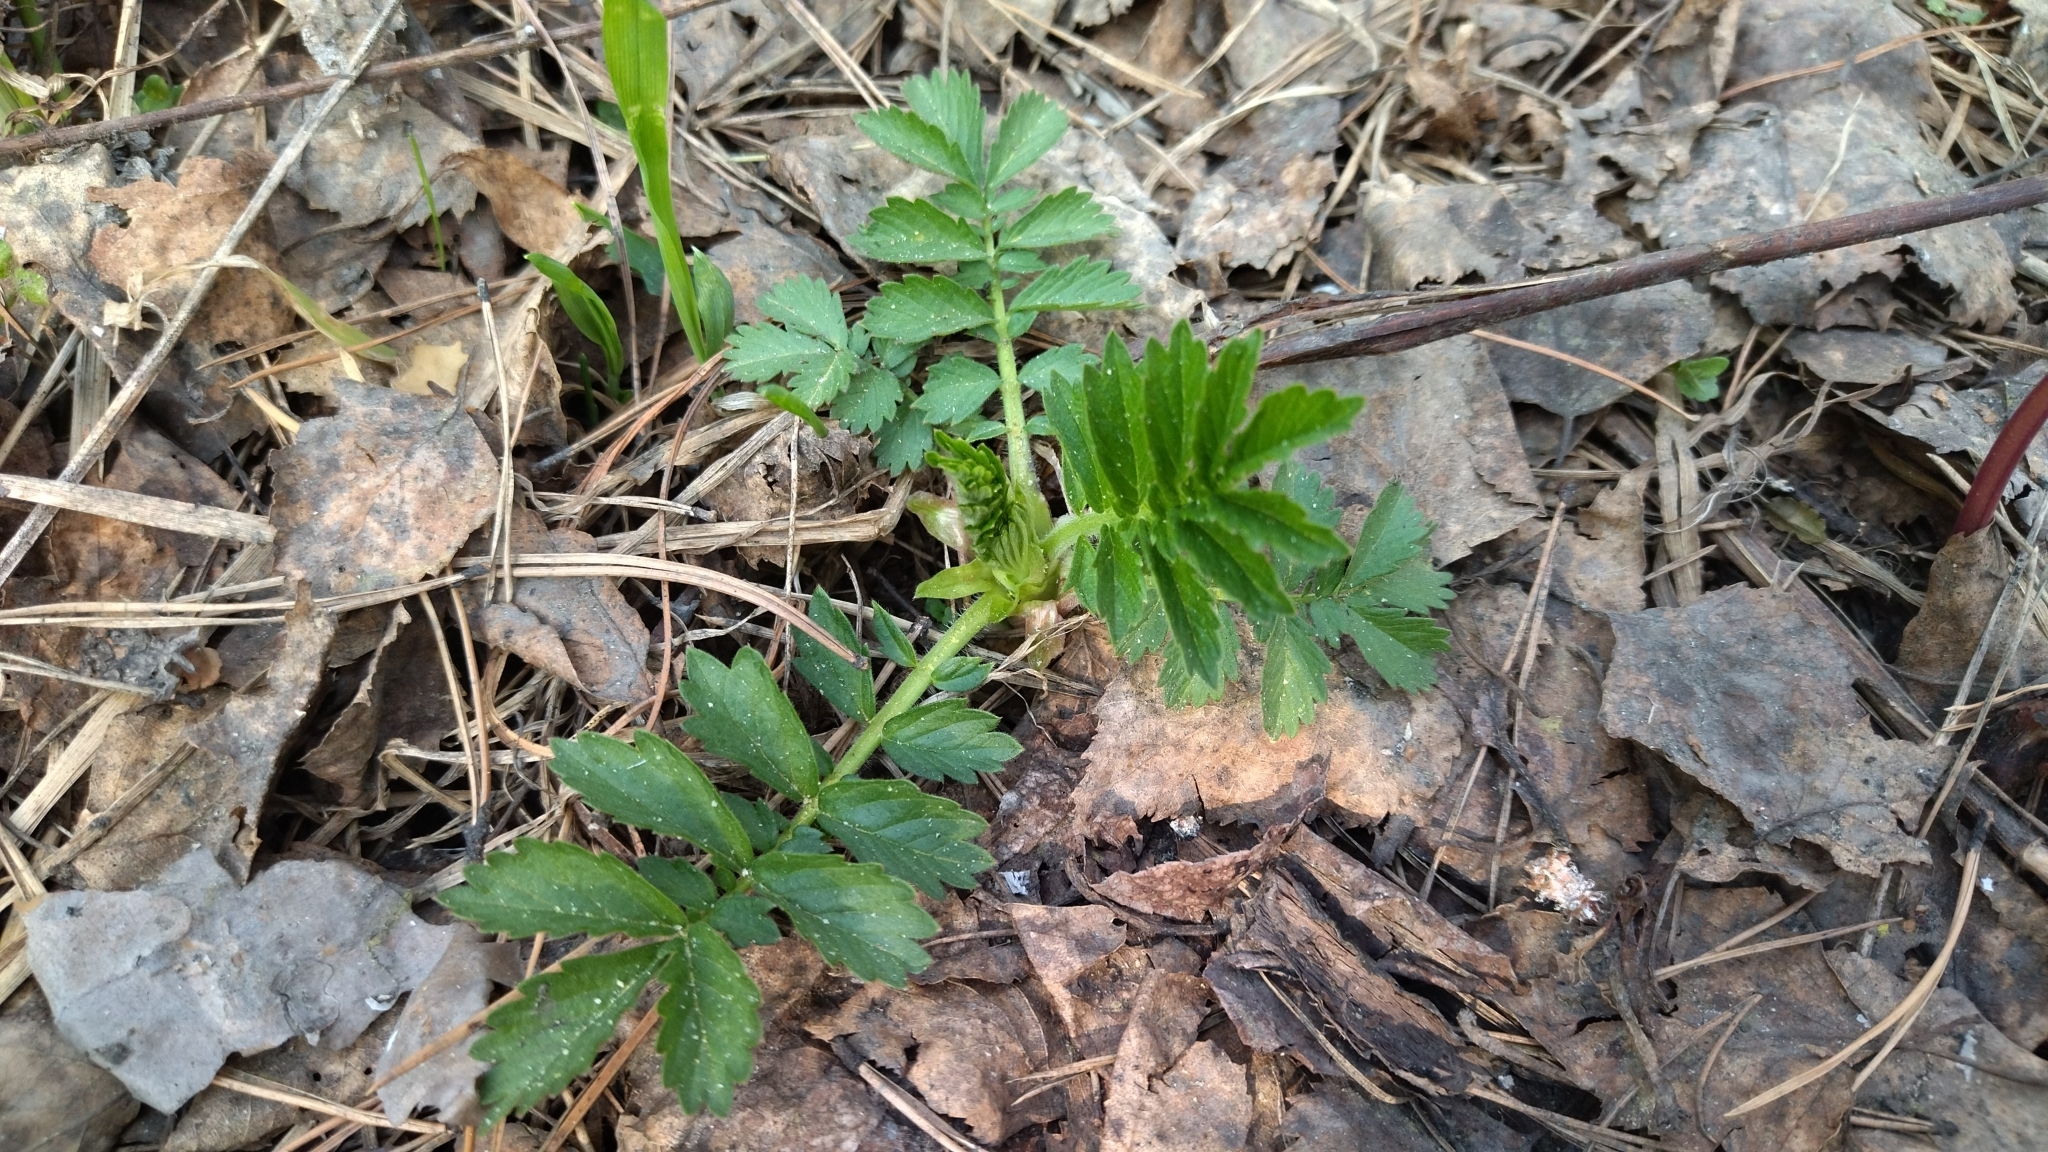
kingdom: Plantae
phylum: Tracheophyta
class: Magnoliopsida
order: Rosales
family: Rosaceae
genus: Agrimonia
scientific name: Agrimonia pilosa
